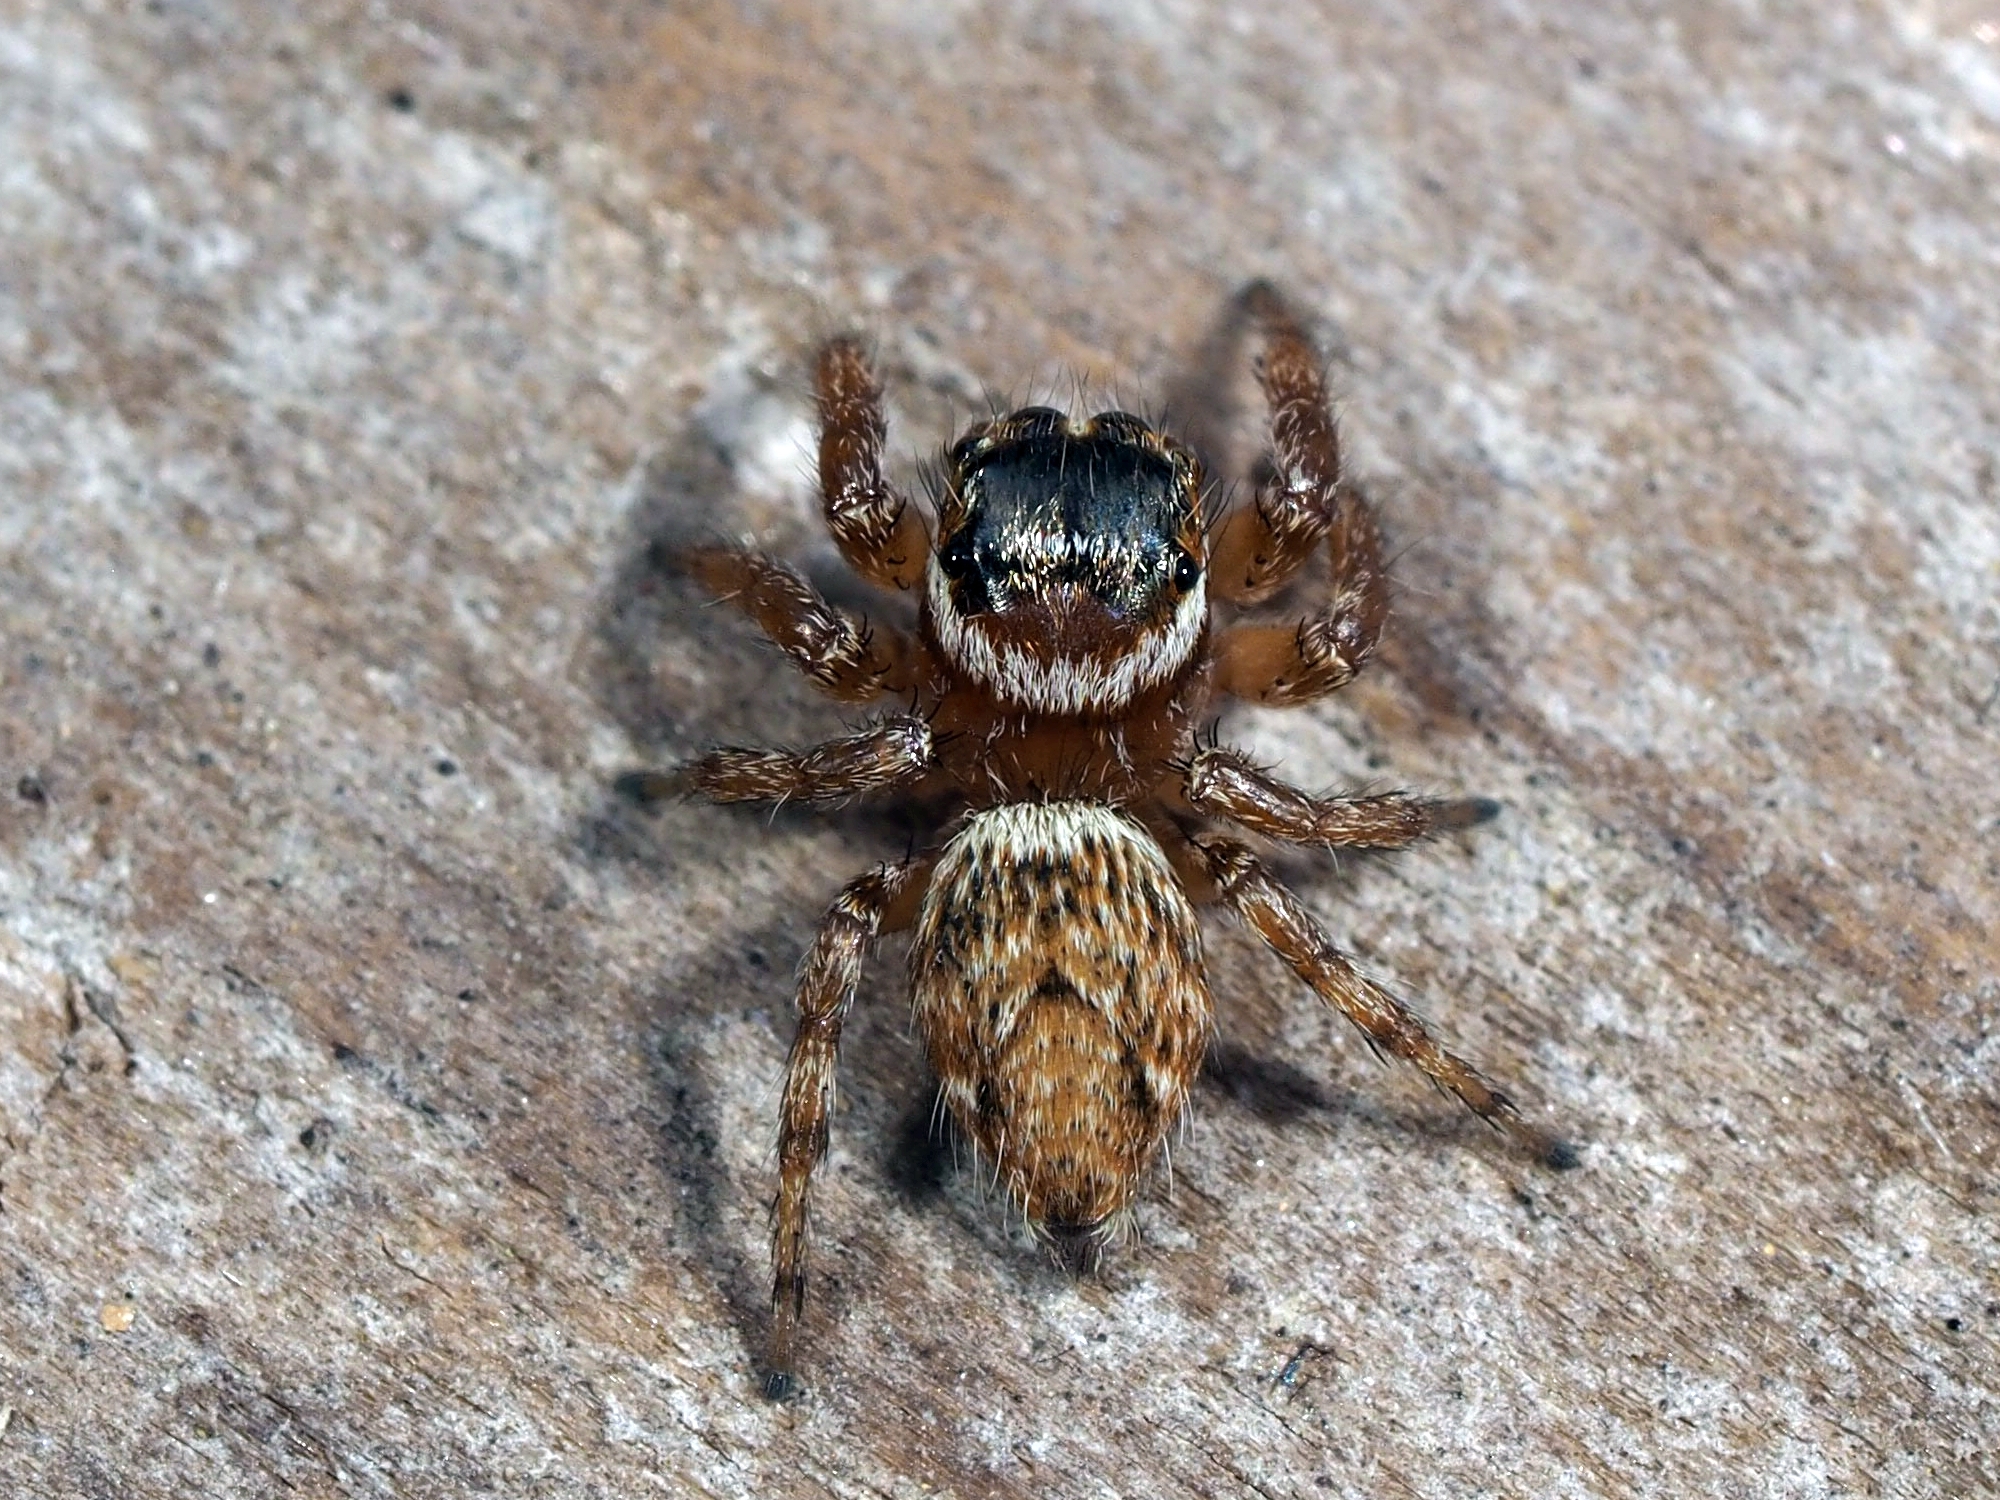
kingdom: Animalia
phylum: Arthropoda
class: Arachnida
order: Araneae
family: Salticidae
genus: Evarcha
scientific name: Evarcha jucunda
